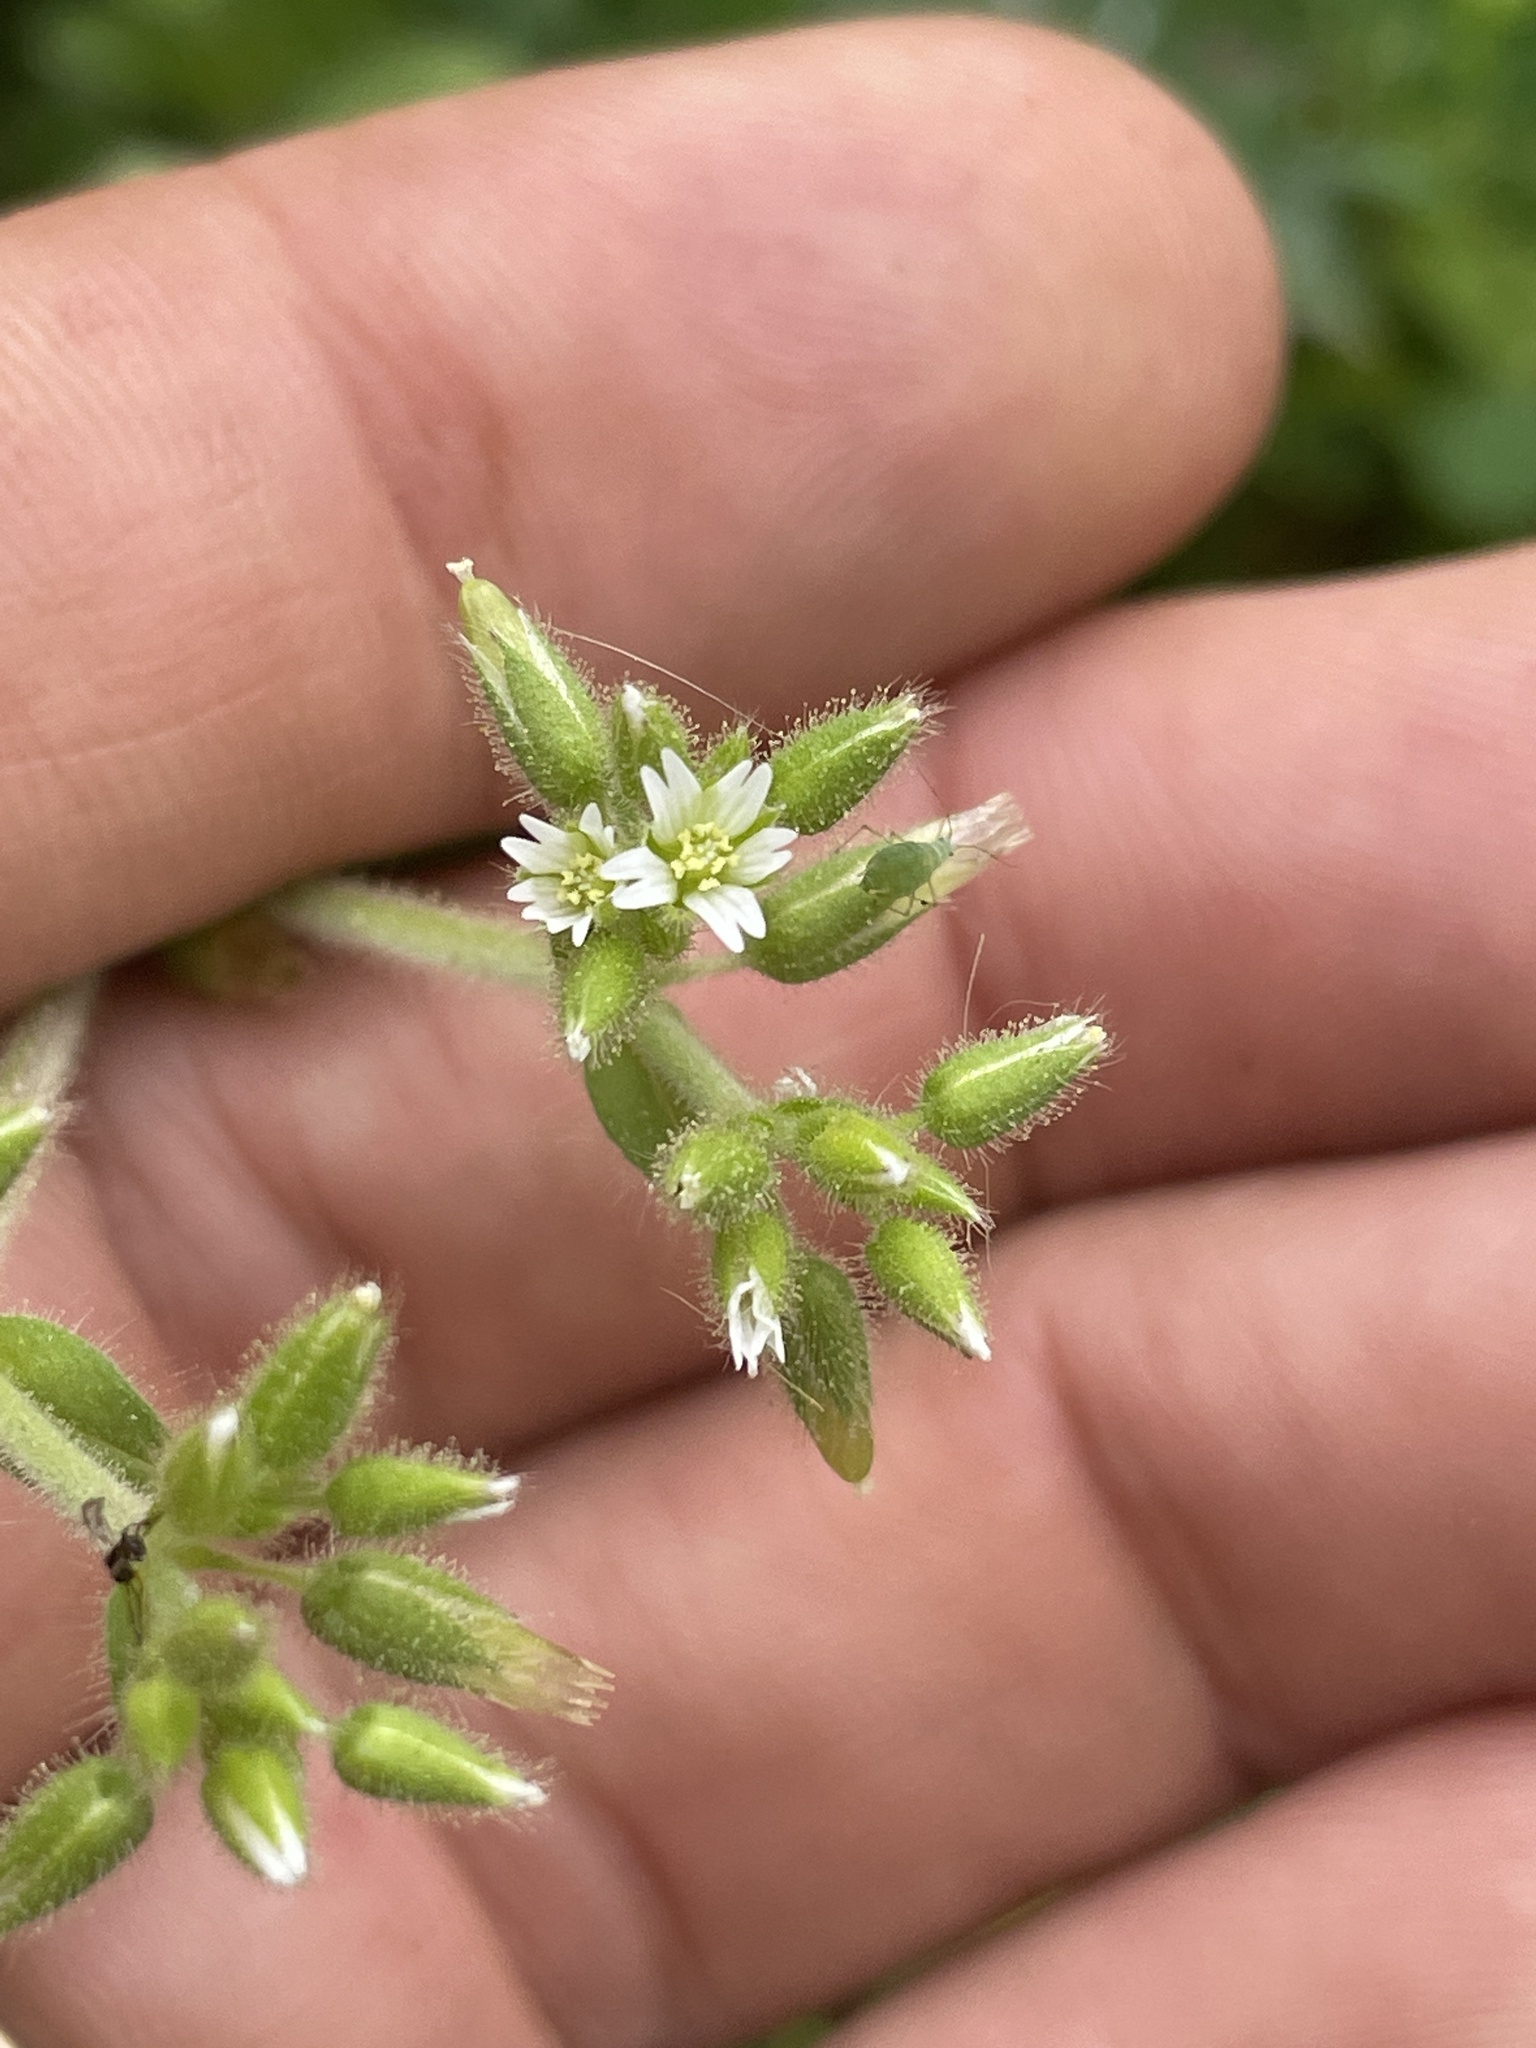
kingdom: Plantae
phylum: Tracheophyta
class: Magnoliopsida
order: Caryophyllales
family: Caryophyllaceae
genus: Cerastium
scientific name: Cerastium glomeratum
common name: Sticky chickweed
